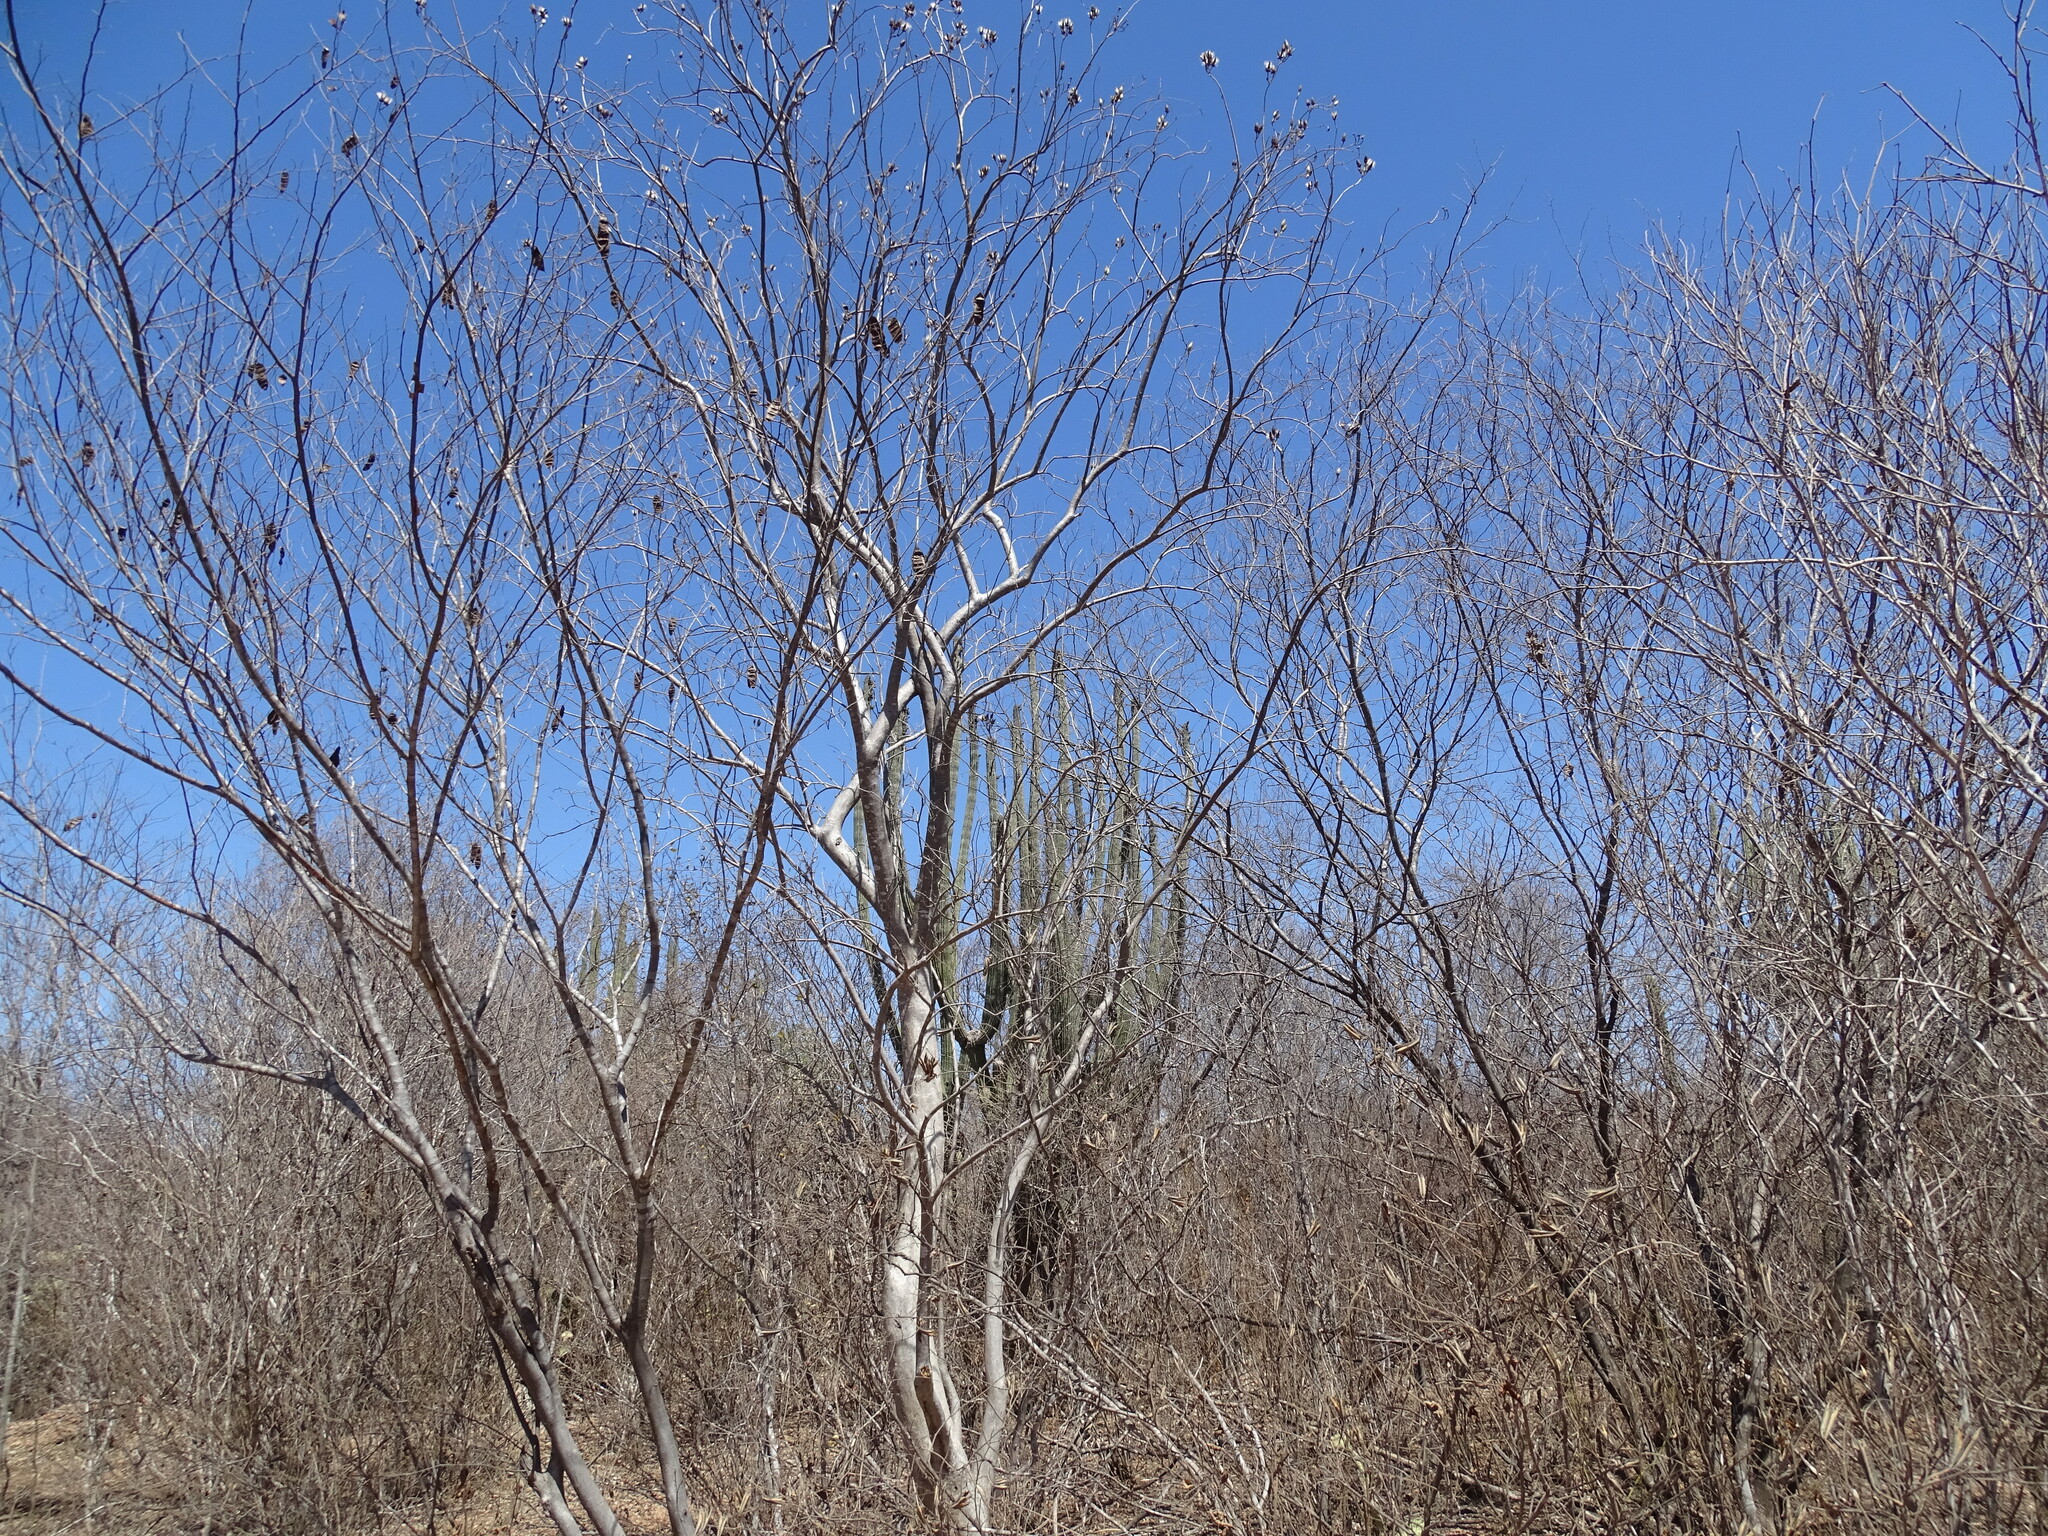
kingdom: Plantae
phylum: Tracheophyta
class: Magnoliopsida
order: Fabales
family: Fabaceae
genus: Lysiloma
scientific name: Lysiloma divaricatum
